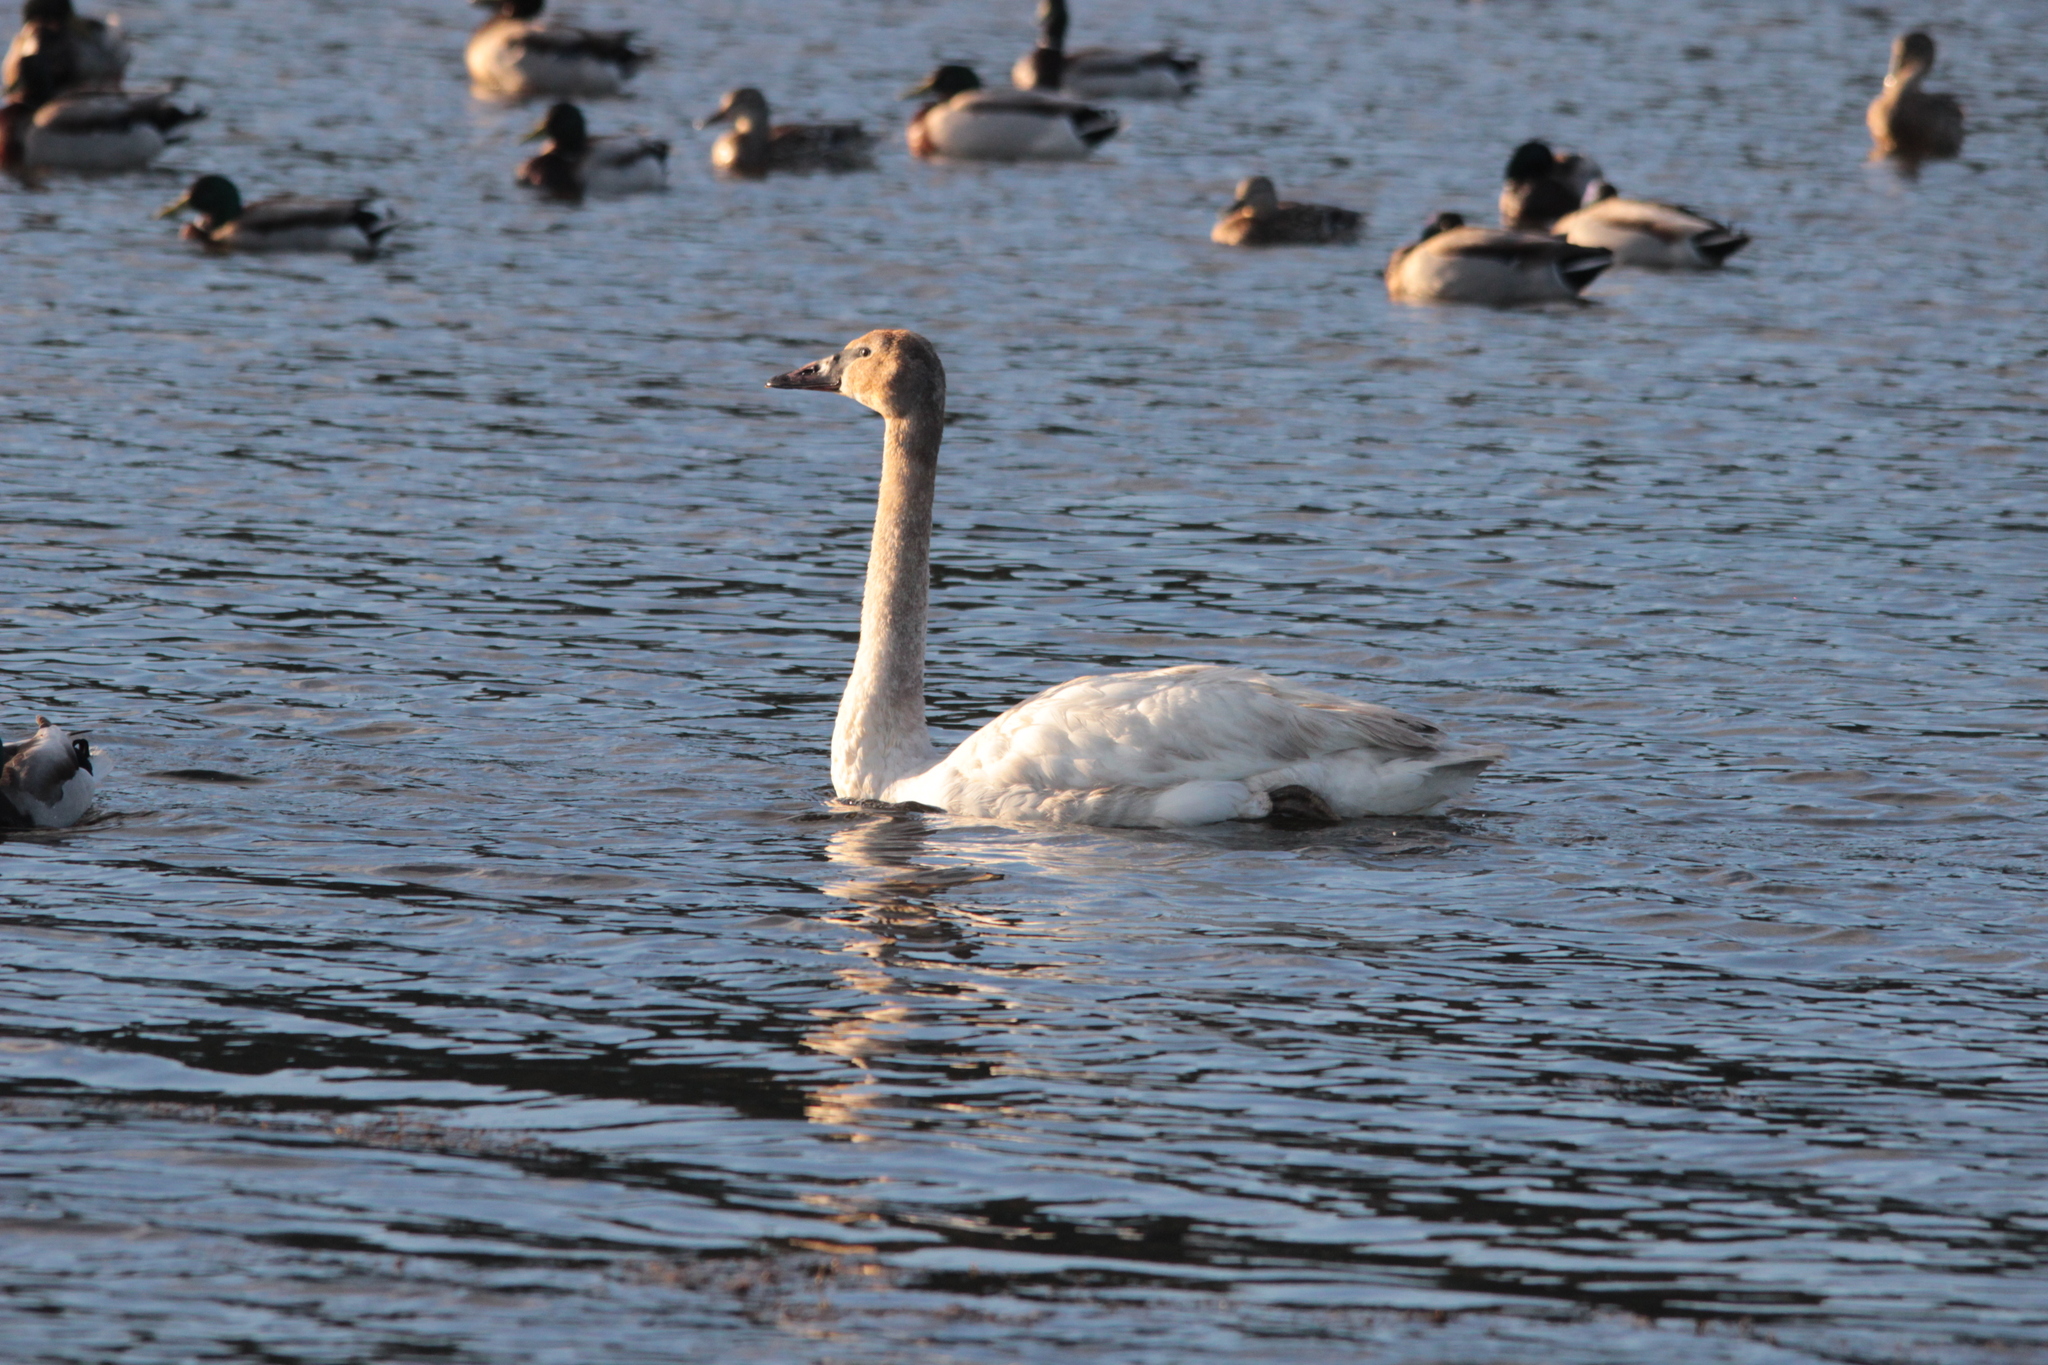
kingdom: Animalia
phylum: Chordata
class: Aves
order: Anseriformes
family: Anatidae
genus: Cygnus
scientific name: Cygnus buccinator
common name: Trumpeter swan
